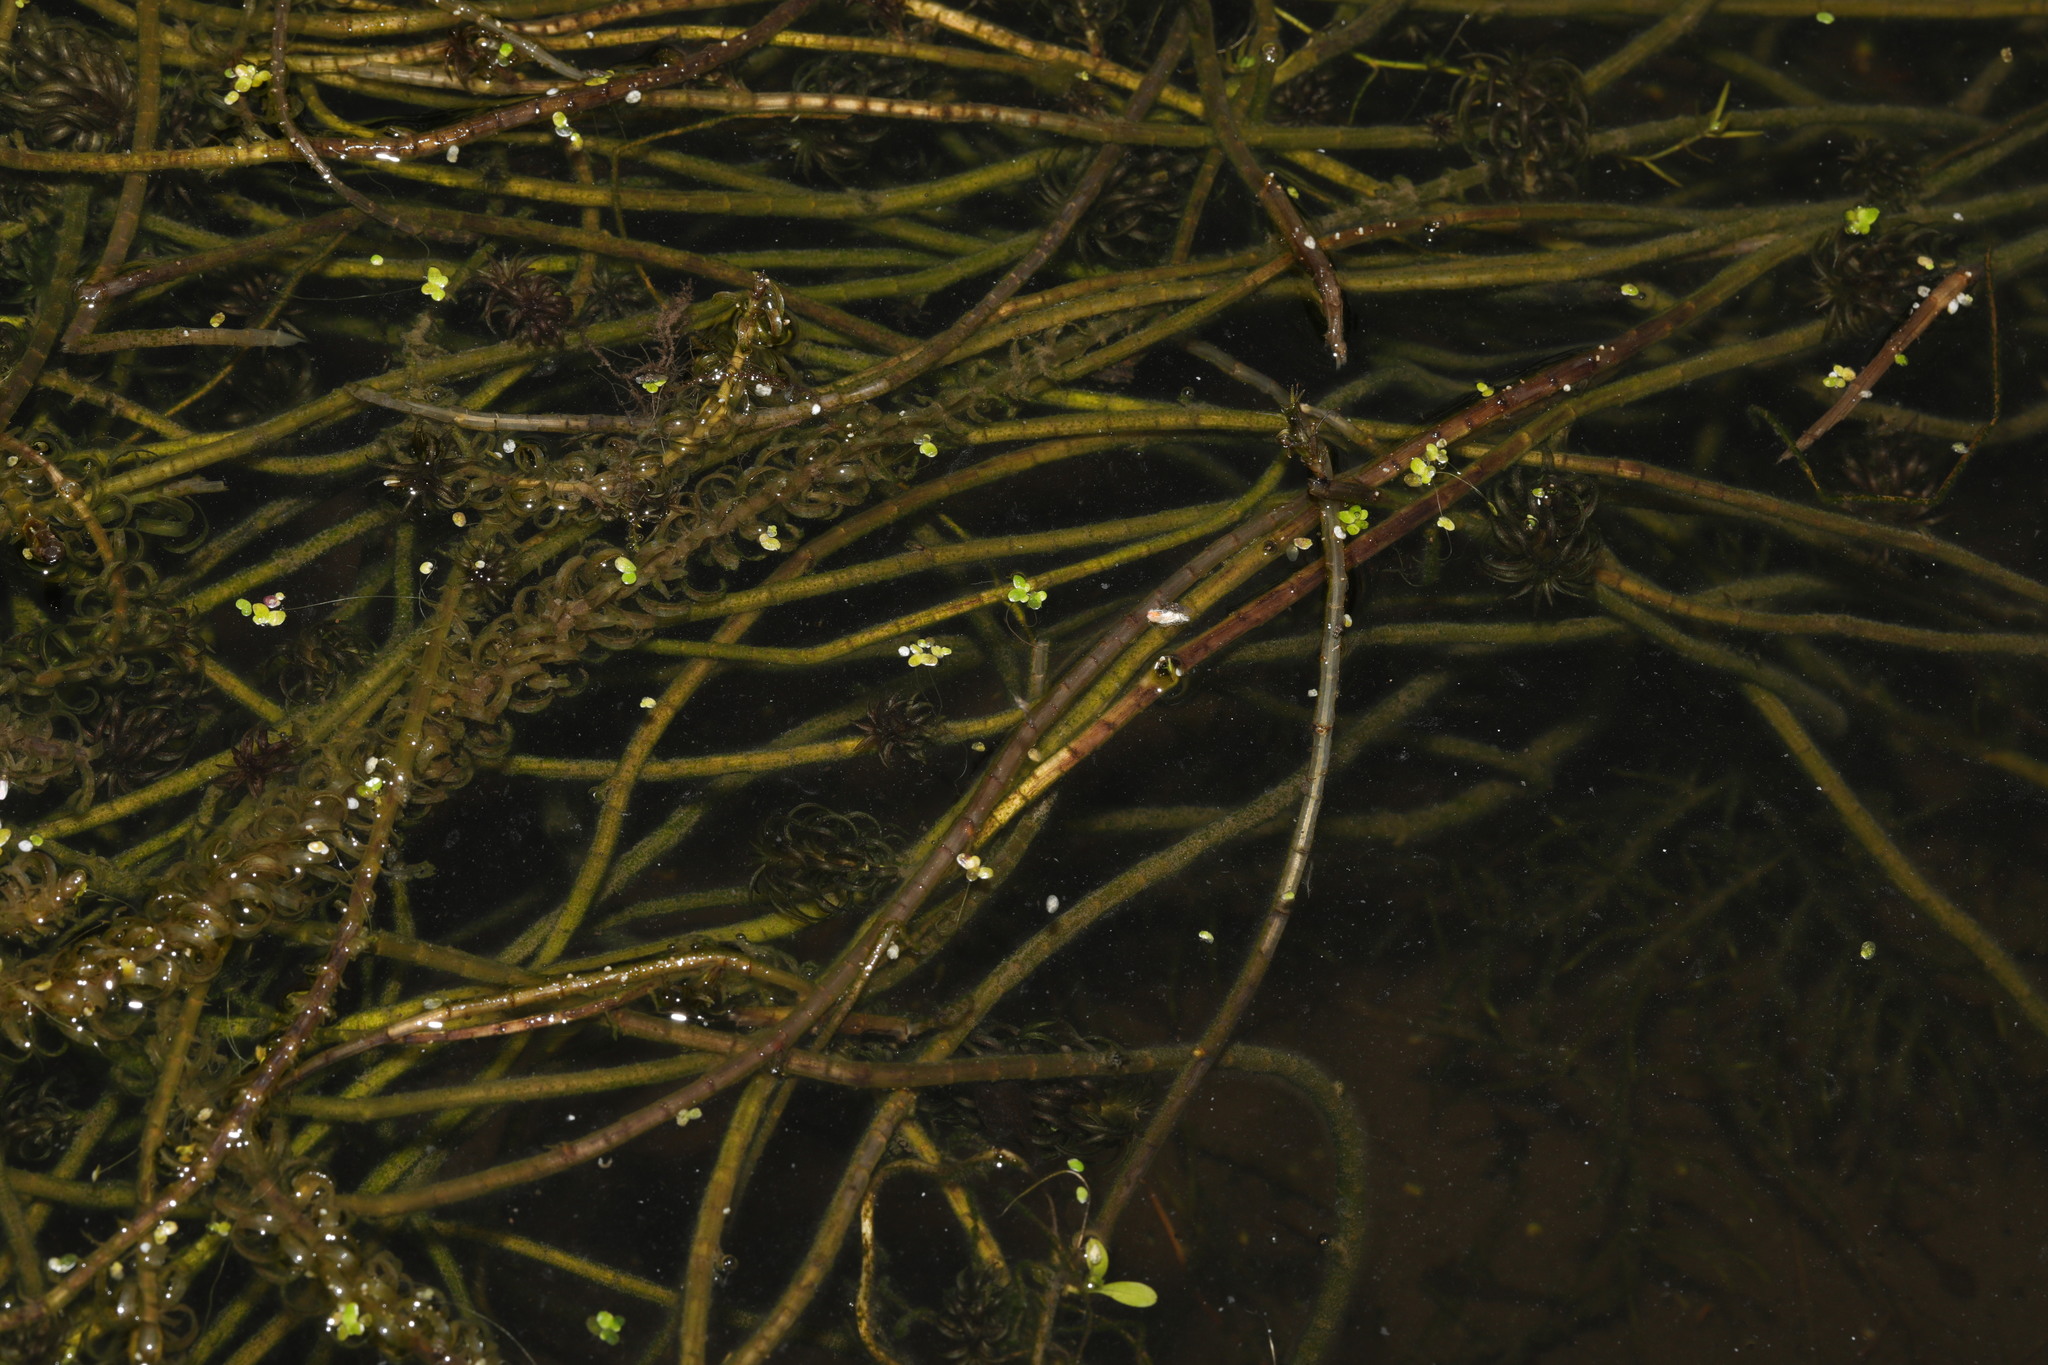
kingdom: Plantae
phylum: Tracheophyta
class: Liliopsida
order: Alismatales
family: Hydrocharitaceae
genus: Lagarosiphon
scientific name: Lagarosiphon major
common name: Curly waterweed
